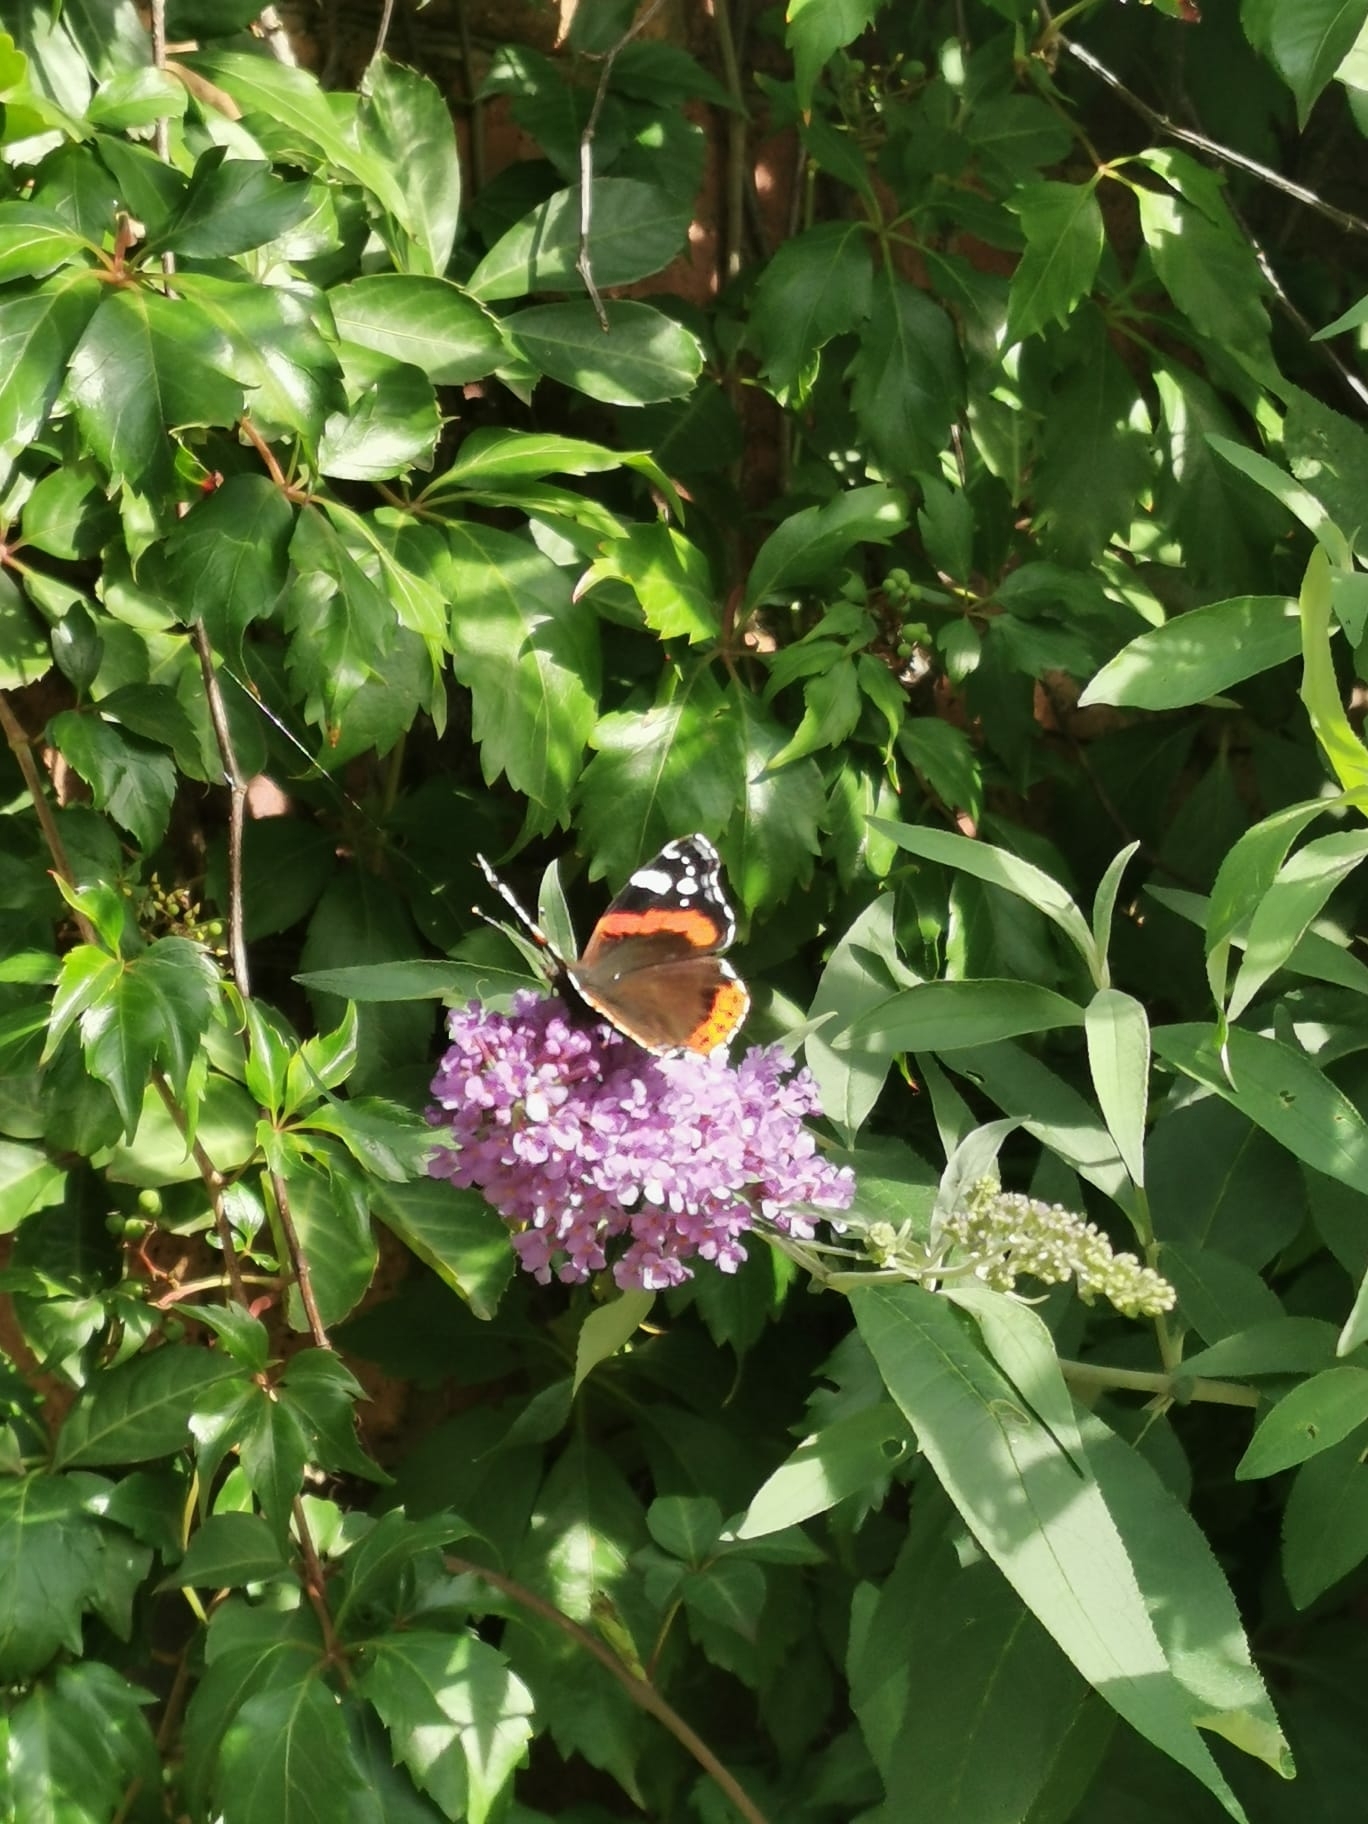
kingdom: Animalia
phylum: Arthropoda
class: Insecta
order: Lepidoptera
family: Nymphalidae
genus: Vanessa
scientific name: Vanessa atalanta
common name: Red admiral
